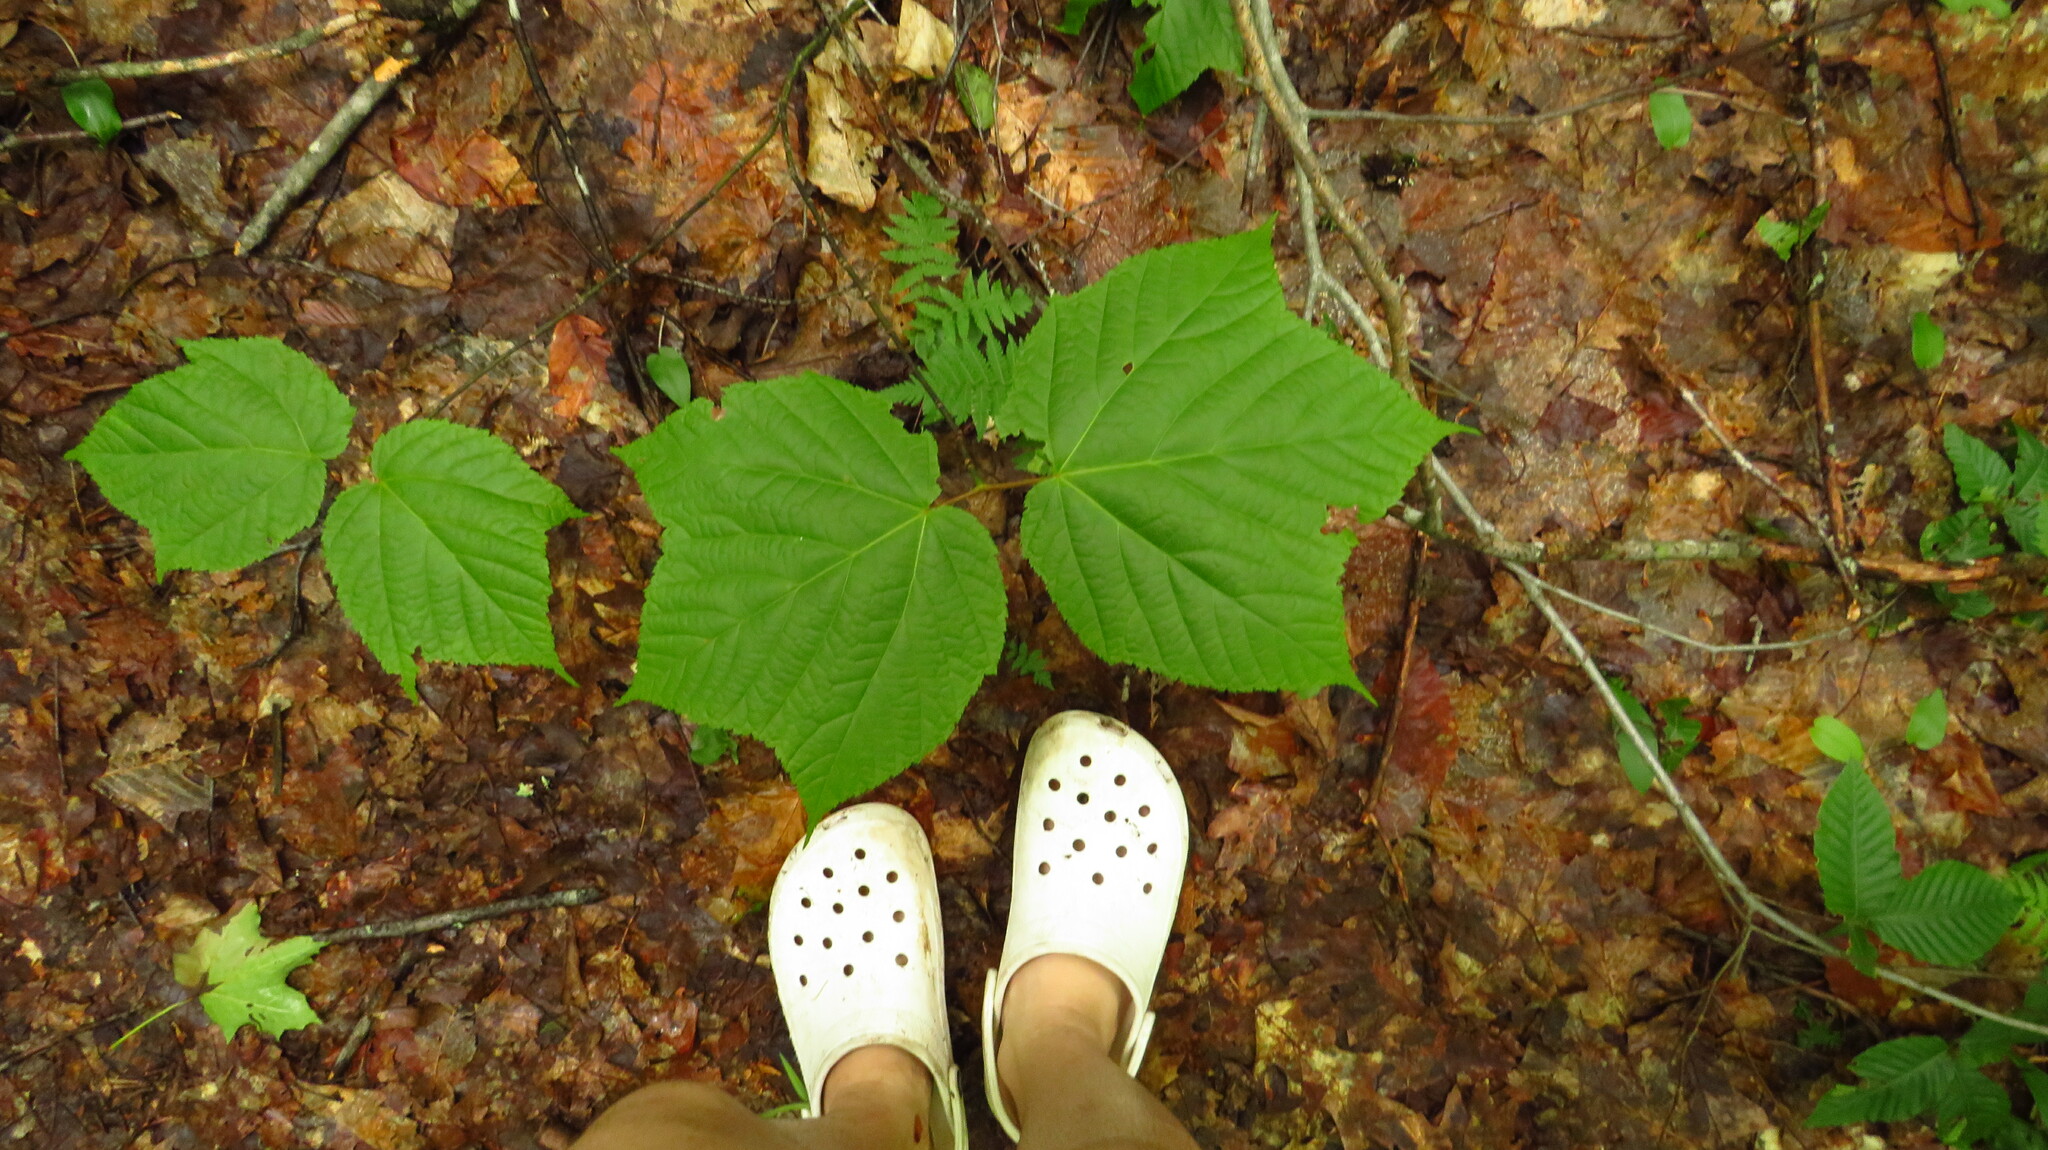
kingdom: Plantae
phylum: Tracheophyta
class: Magnoliopsida
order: Sapindales
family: Sapindaceae
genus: Acer
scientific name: Acer pensylvanicum
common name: Moosewood
